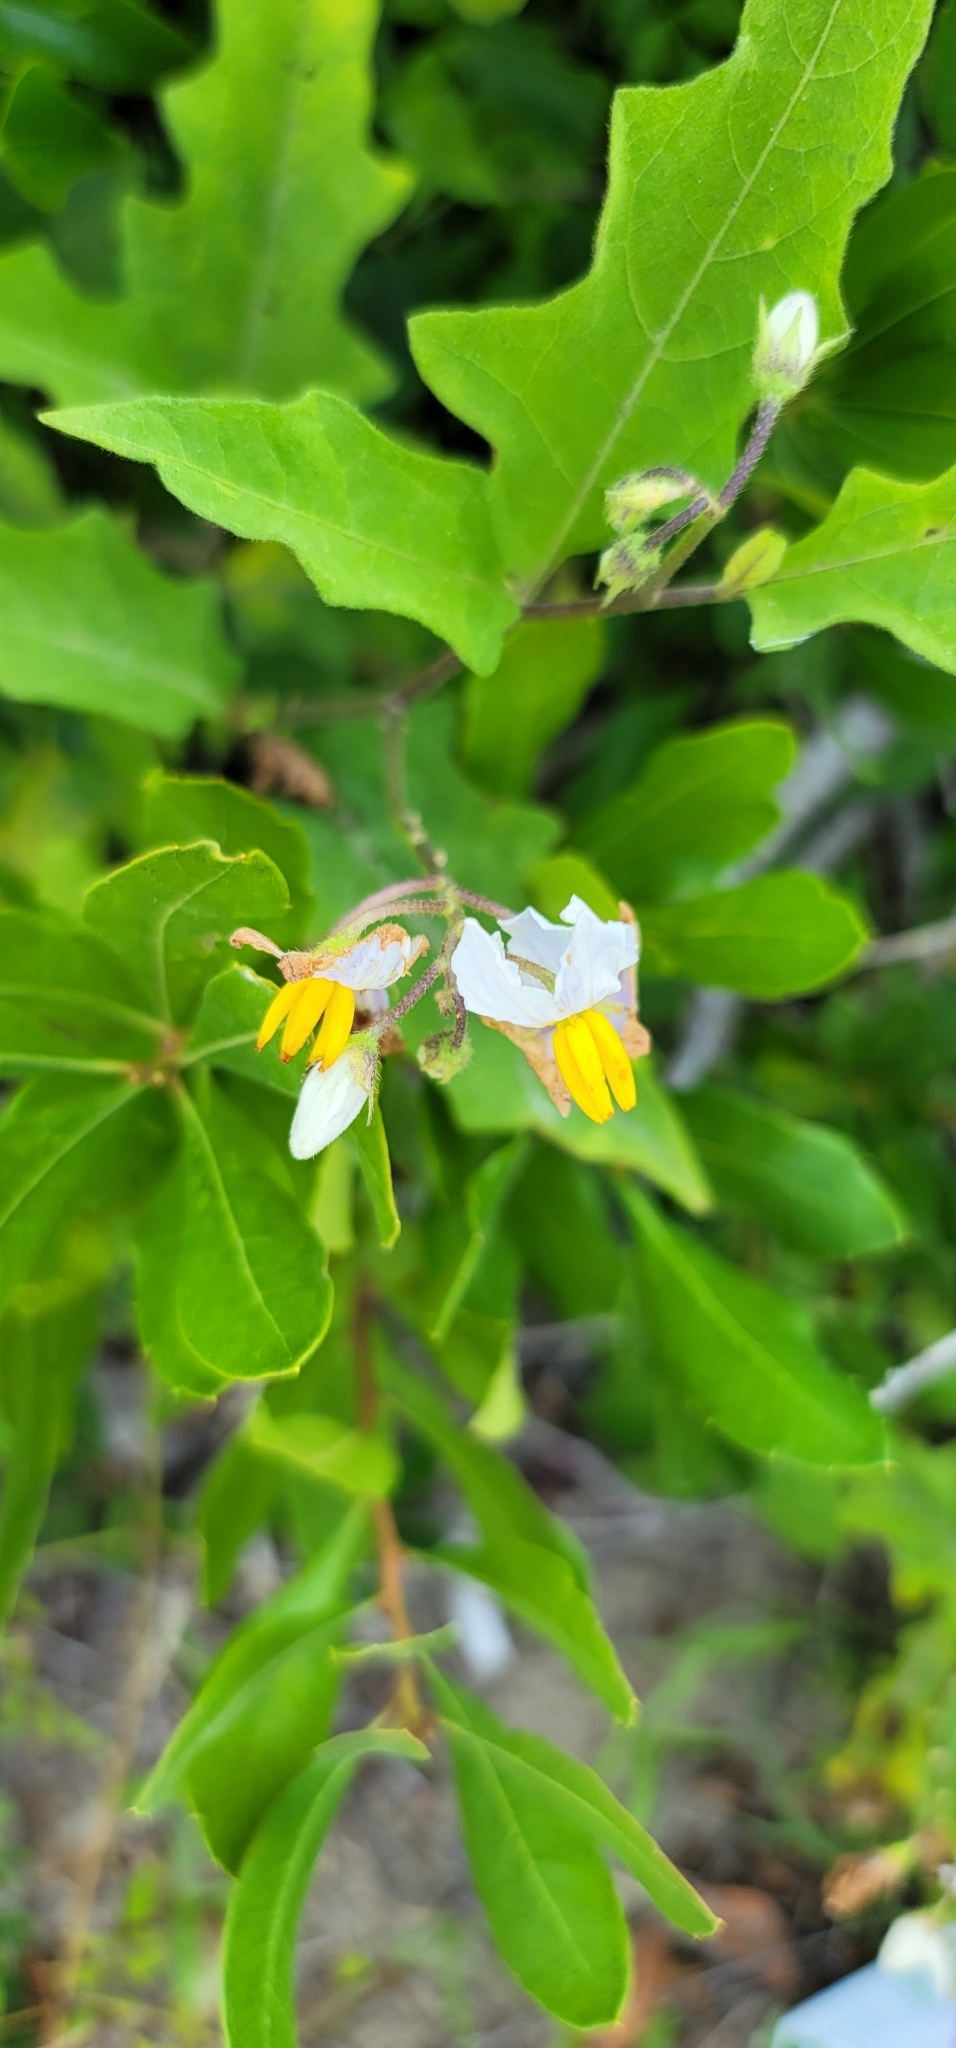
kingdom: Plantae
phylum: Tracheophyta
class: Magnoliopsida
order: Solanales
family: Solanaceae
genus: Solanum
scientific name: Solanum carolinense
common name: Horse-nettle
